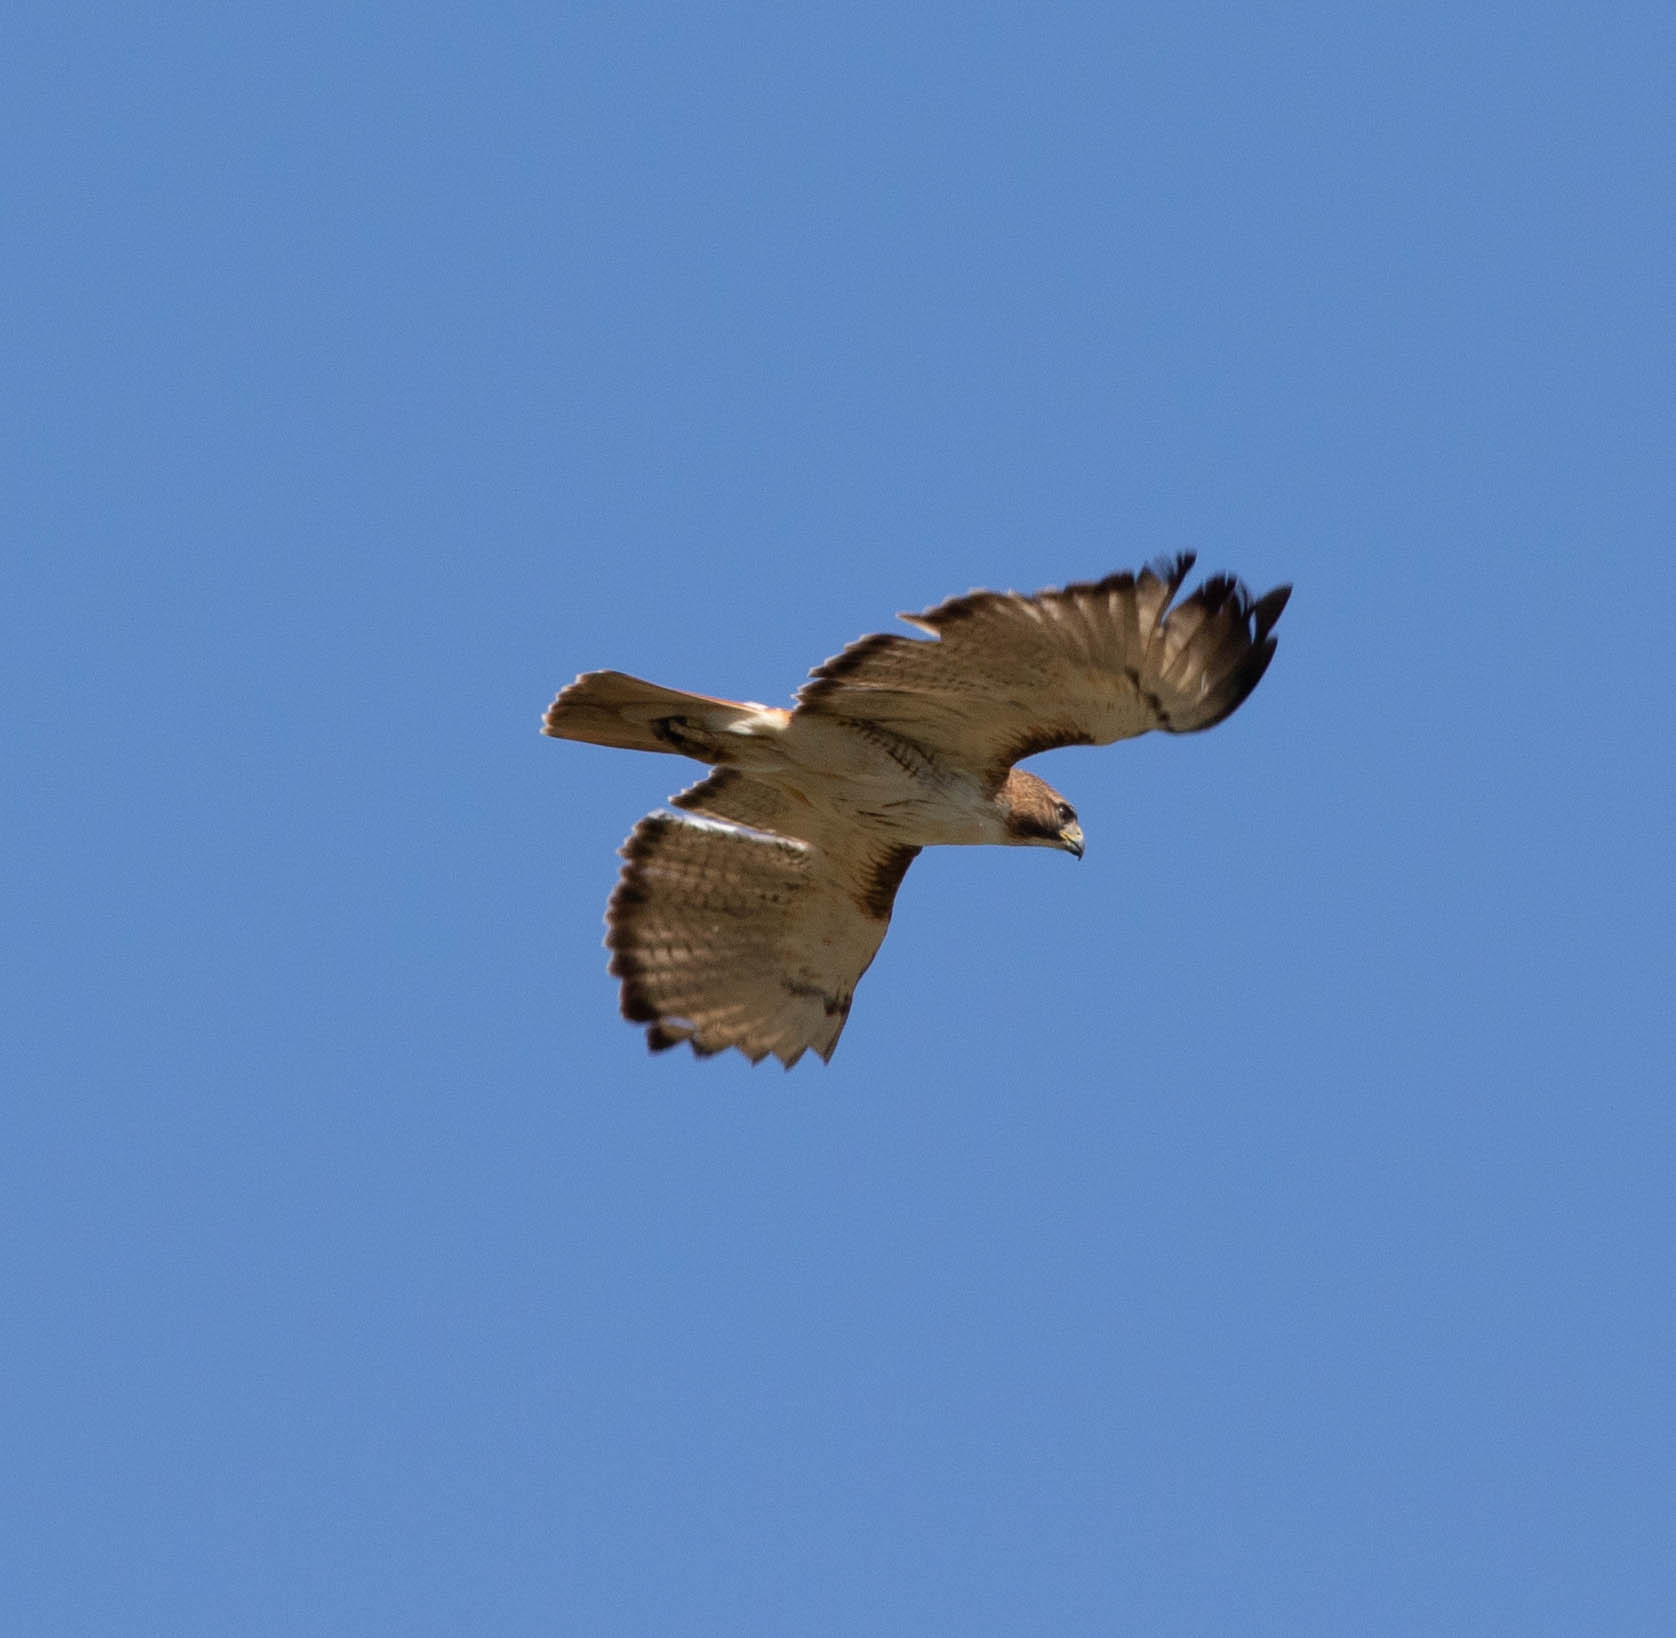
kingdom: Animalia
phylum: Chordata
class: Aves
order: Accipitriformes
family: Accipitridae
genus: Buteo
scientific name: Buteo jamaicensis
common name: Red-tailed hawk
